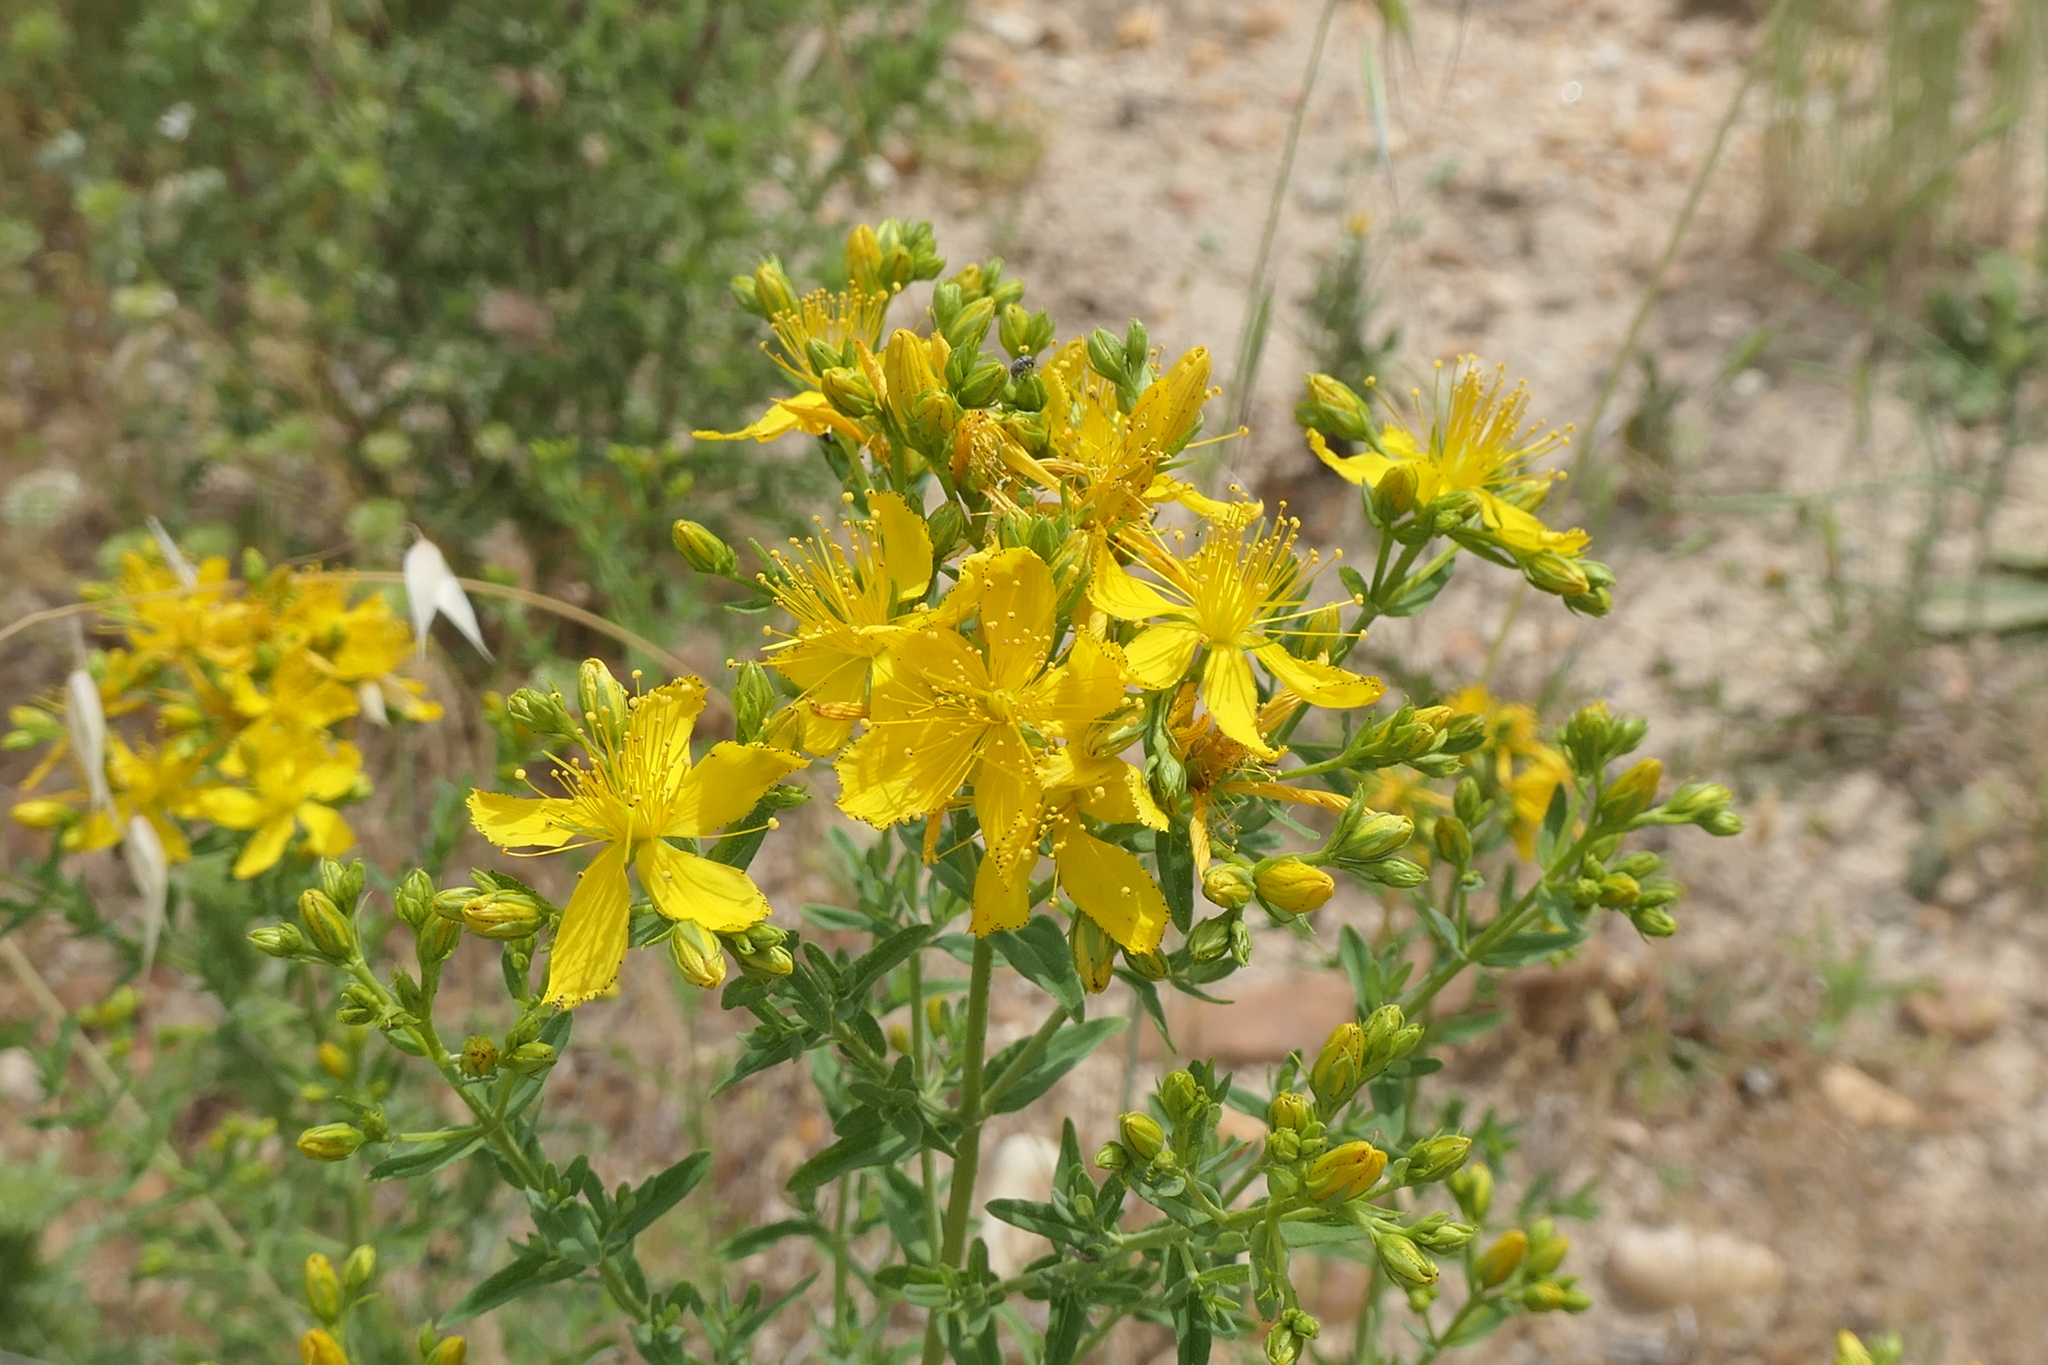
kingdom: Plantae
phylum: Tracheophyta
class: Magnoliopsida
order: Malpighiales
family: Hypericaceae
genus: Hypericum
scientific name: Hypericum perforatum
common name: Common st. johnswort
